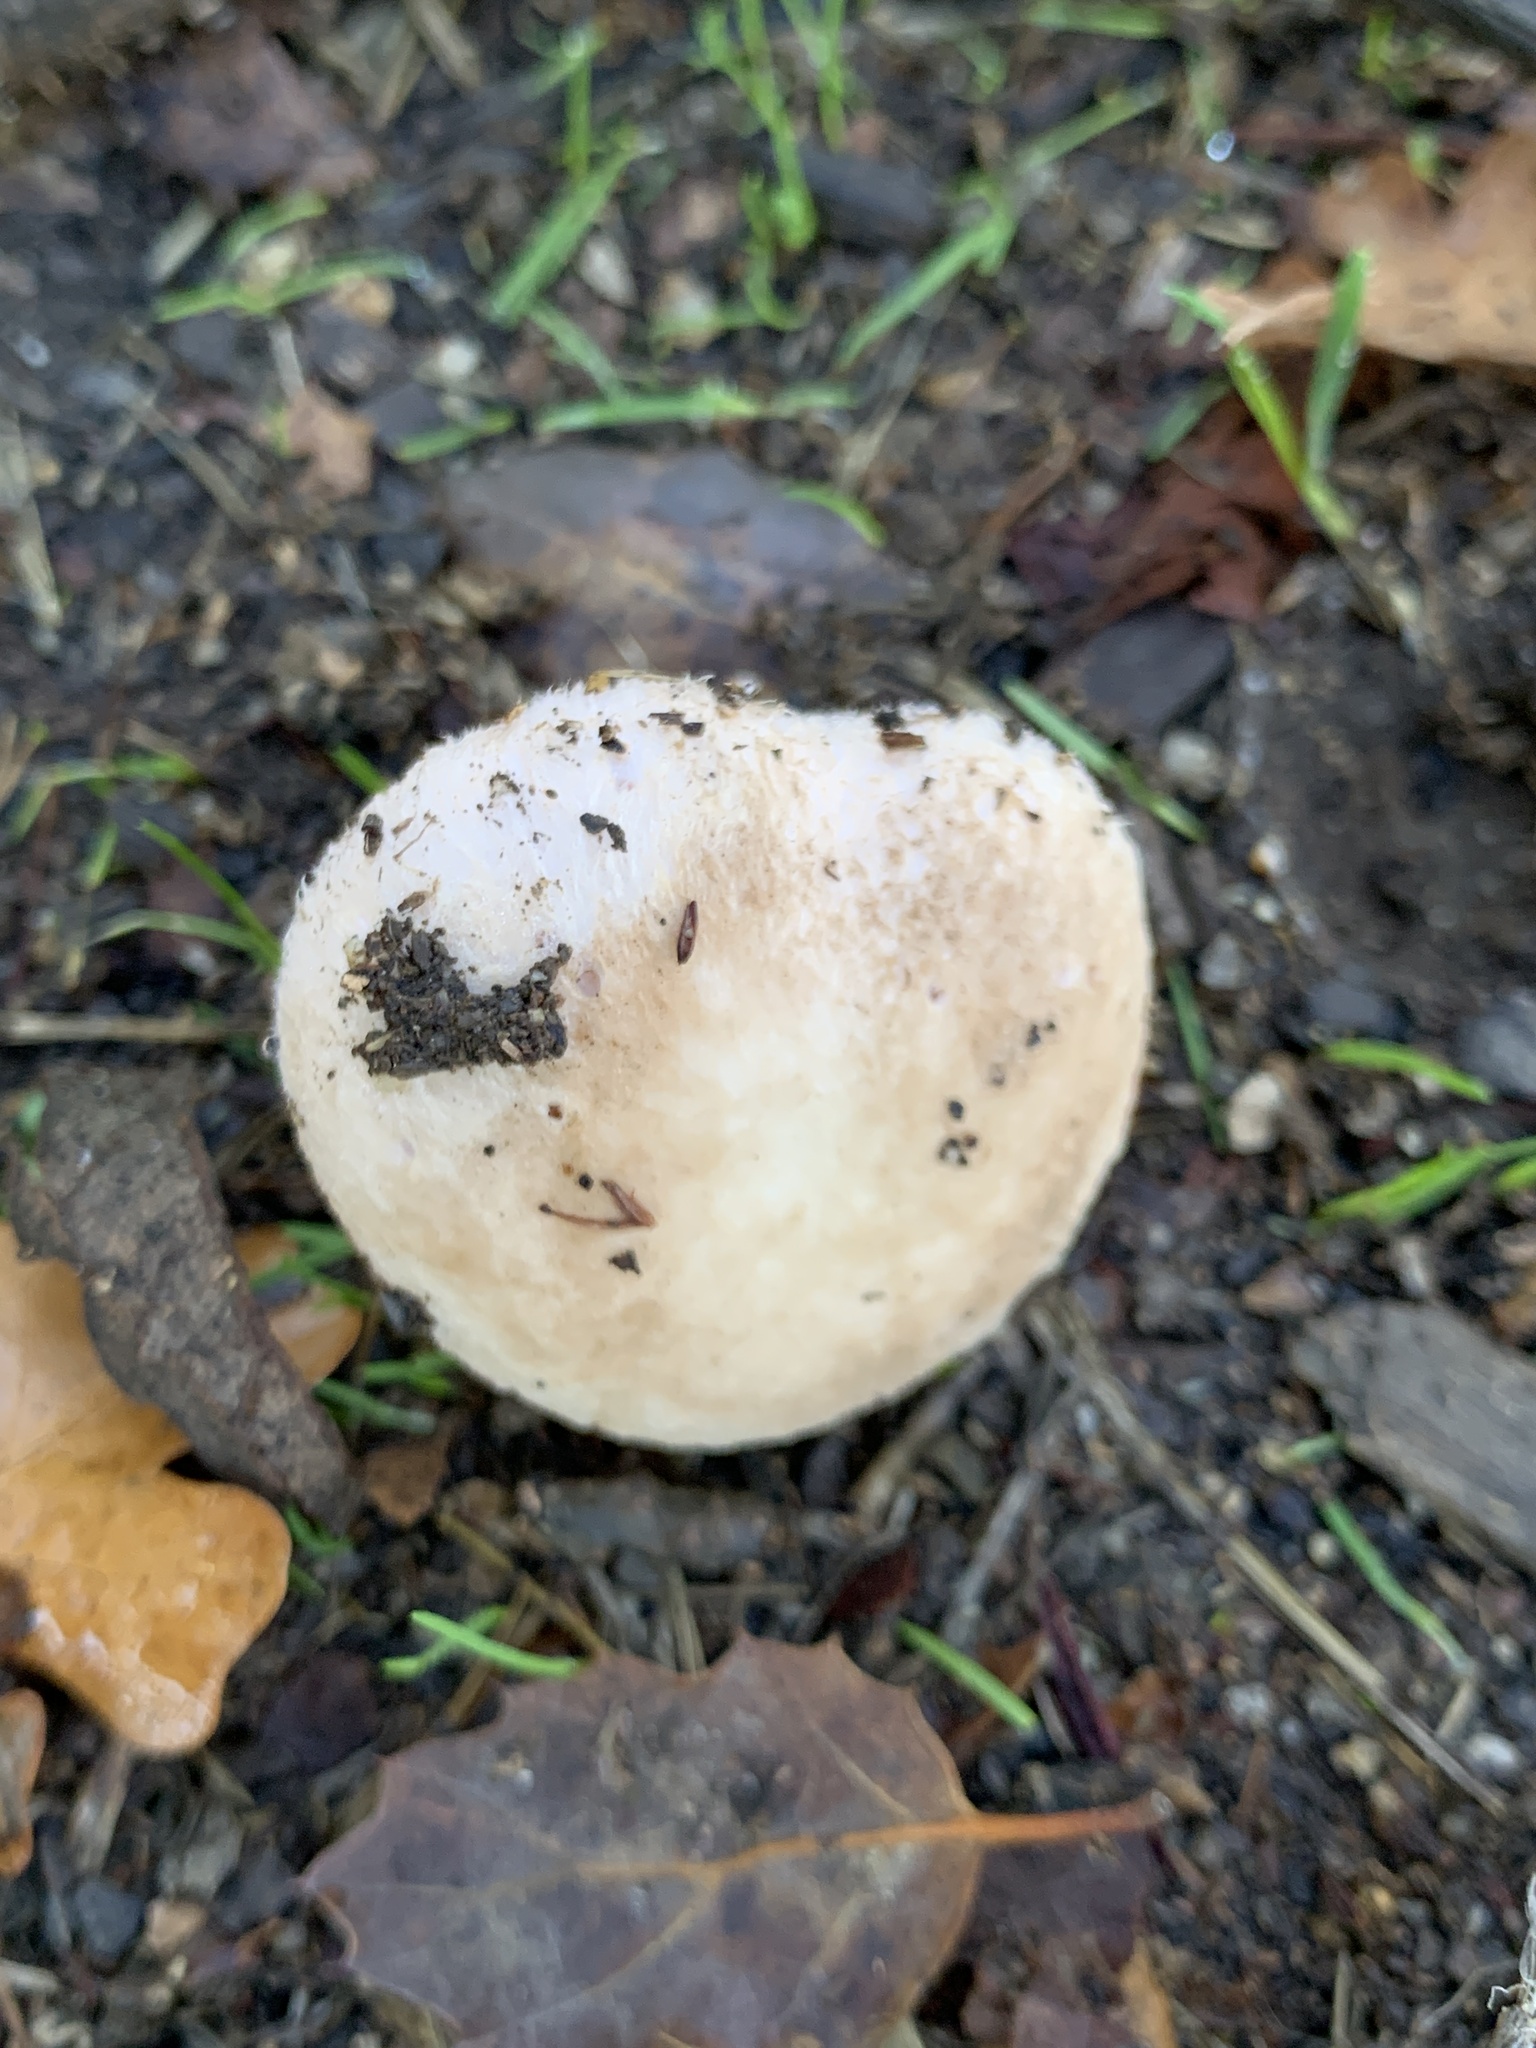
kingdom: Fungi
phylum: Basidiomycota
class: Agaricomycetes
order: Agaricales
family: Agaricaceae
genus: Agaricus
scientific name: Agaricus campestris
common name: Field mushroom
